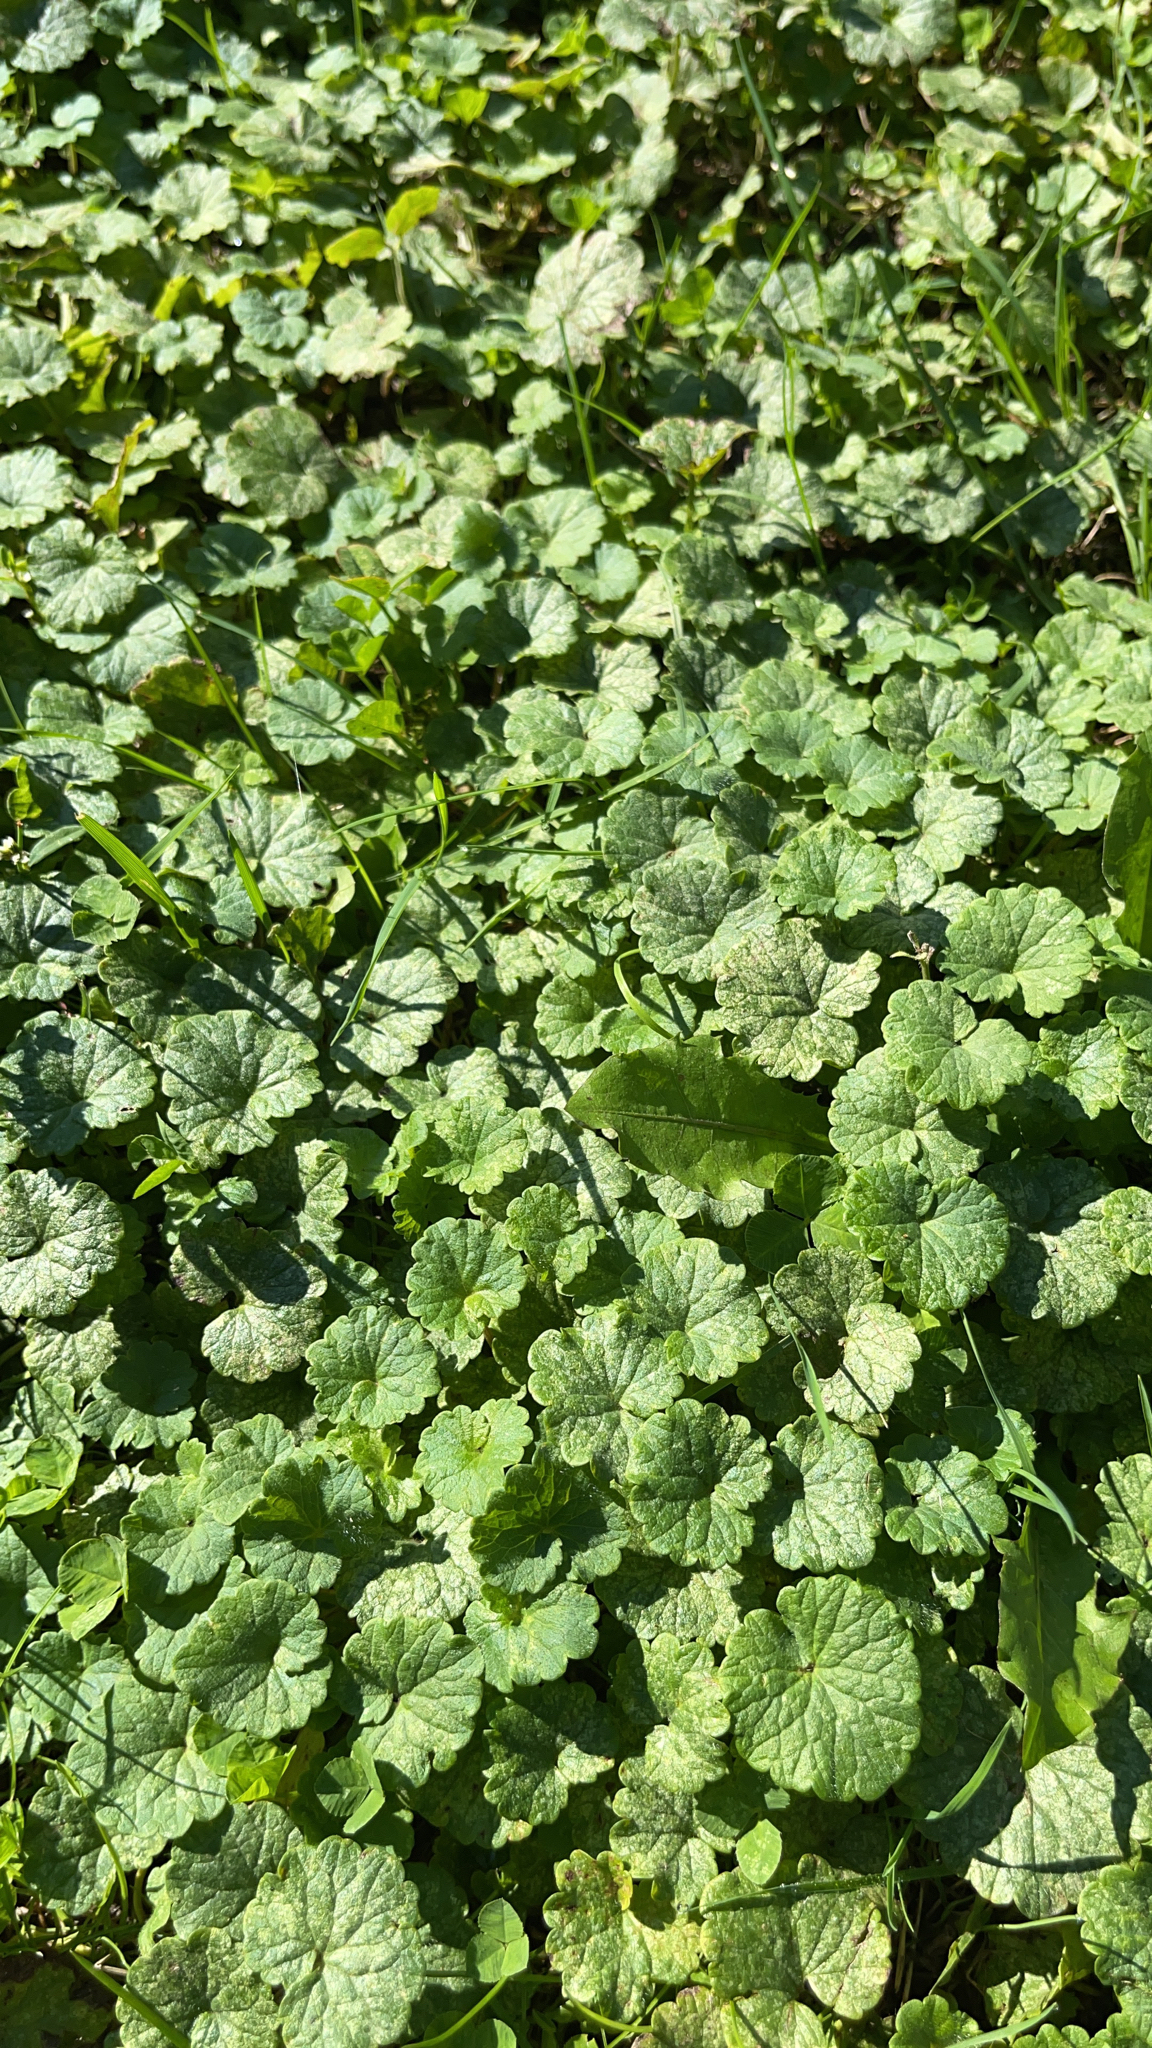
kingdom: Plantae
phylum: Tracheophyta
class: Magnoliopsida
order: Lamiales
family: Lamiaceae
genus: Glechoma
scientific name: Glechoma hederacea
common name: Ground ivy
